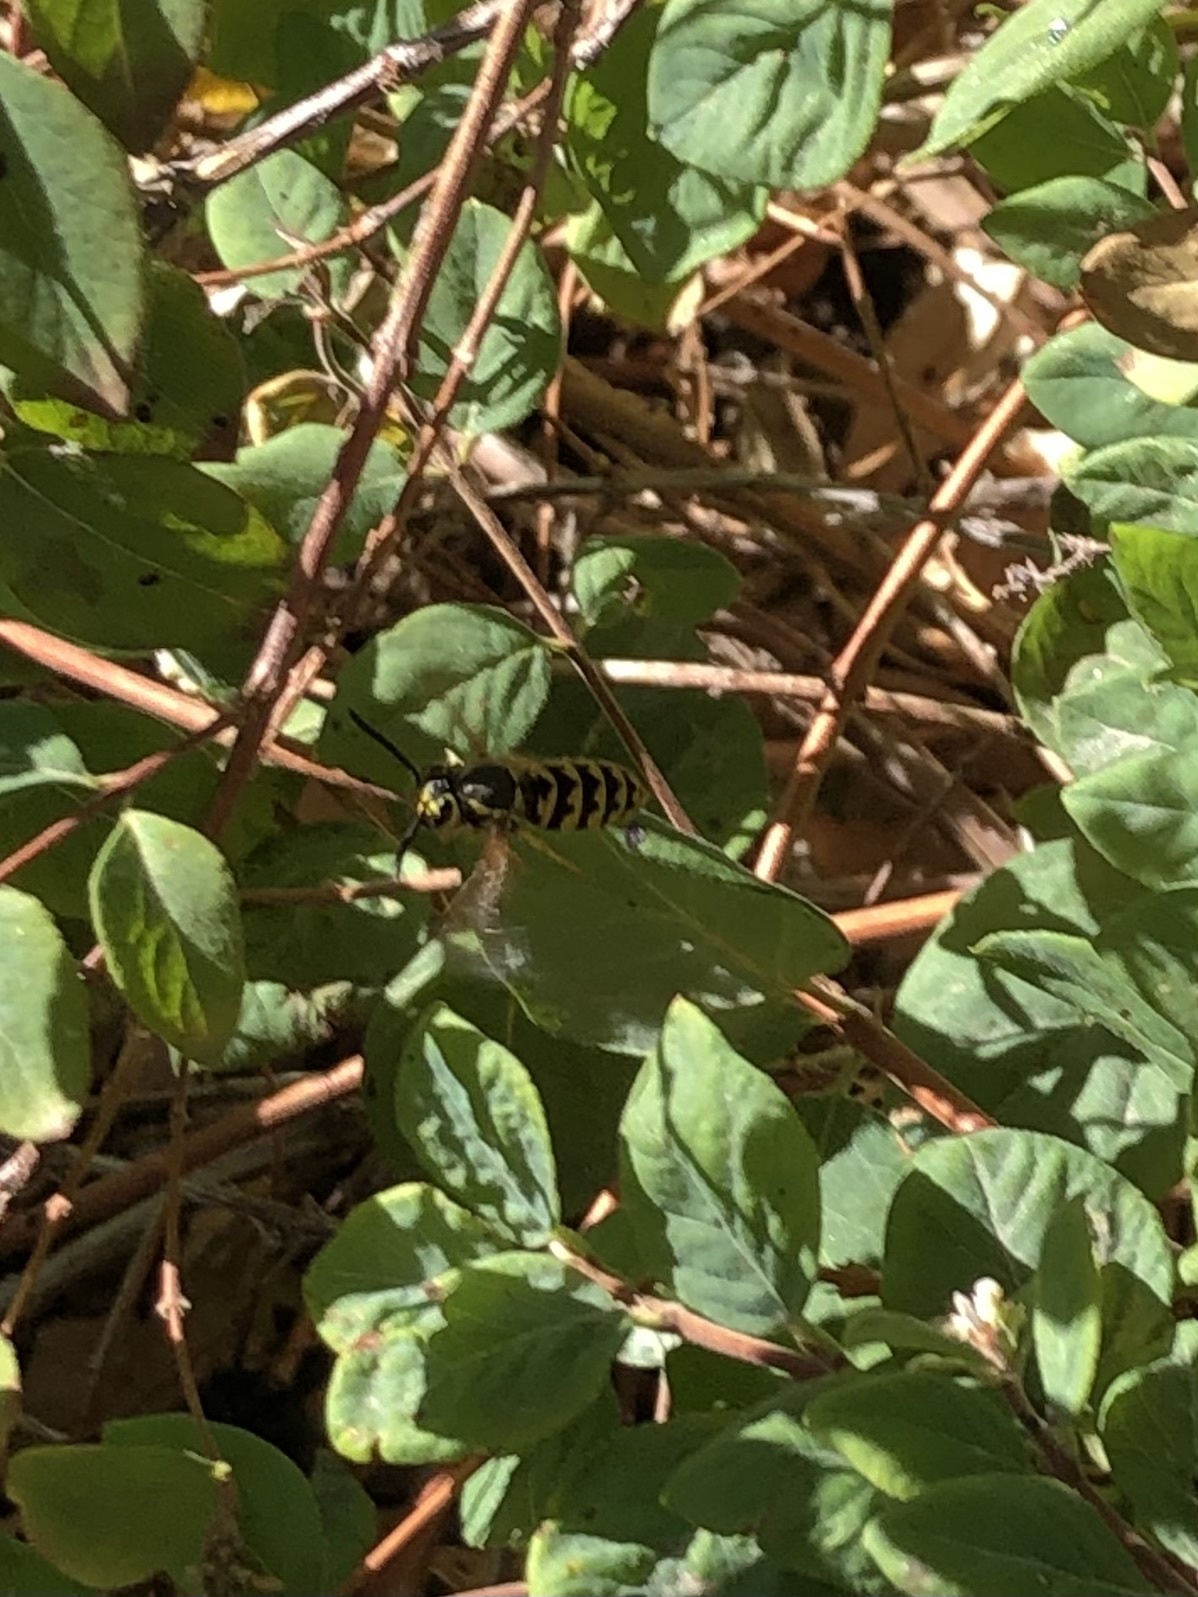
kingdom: Animalia
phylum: Arthropoda
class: Insecta
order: Hymenoptera
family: Vespidae
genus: Vespula
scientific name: Vespula pensylvanica
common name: Western yellowjacket
